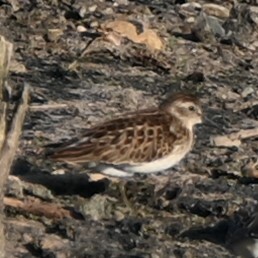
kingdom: Animalia
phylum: Chordata
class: Aves
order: Charadriiformes
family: Scolopacidae
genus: Calidris
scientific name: Calidris minutilla
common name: Least sandpiper
